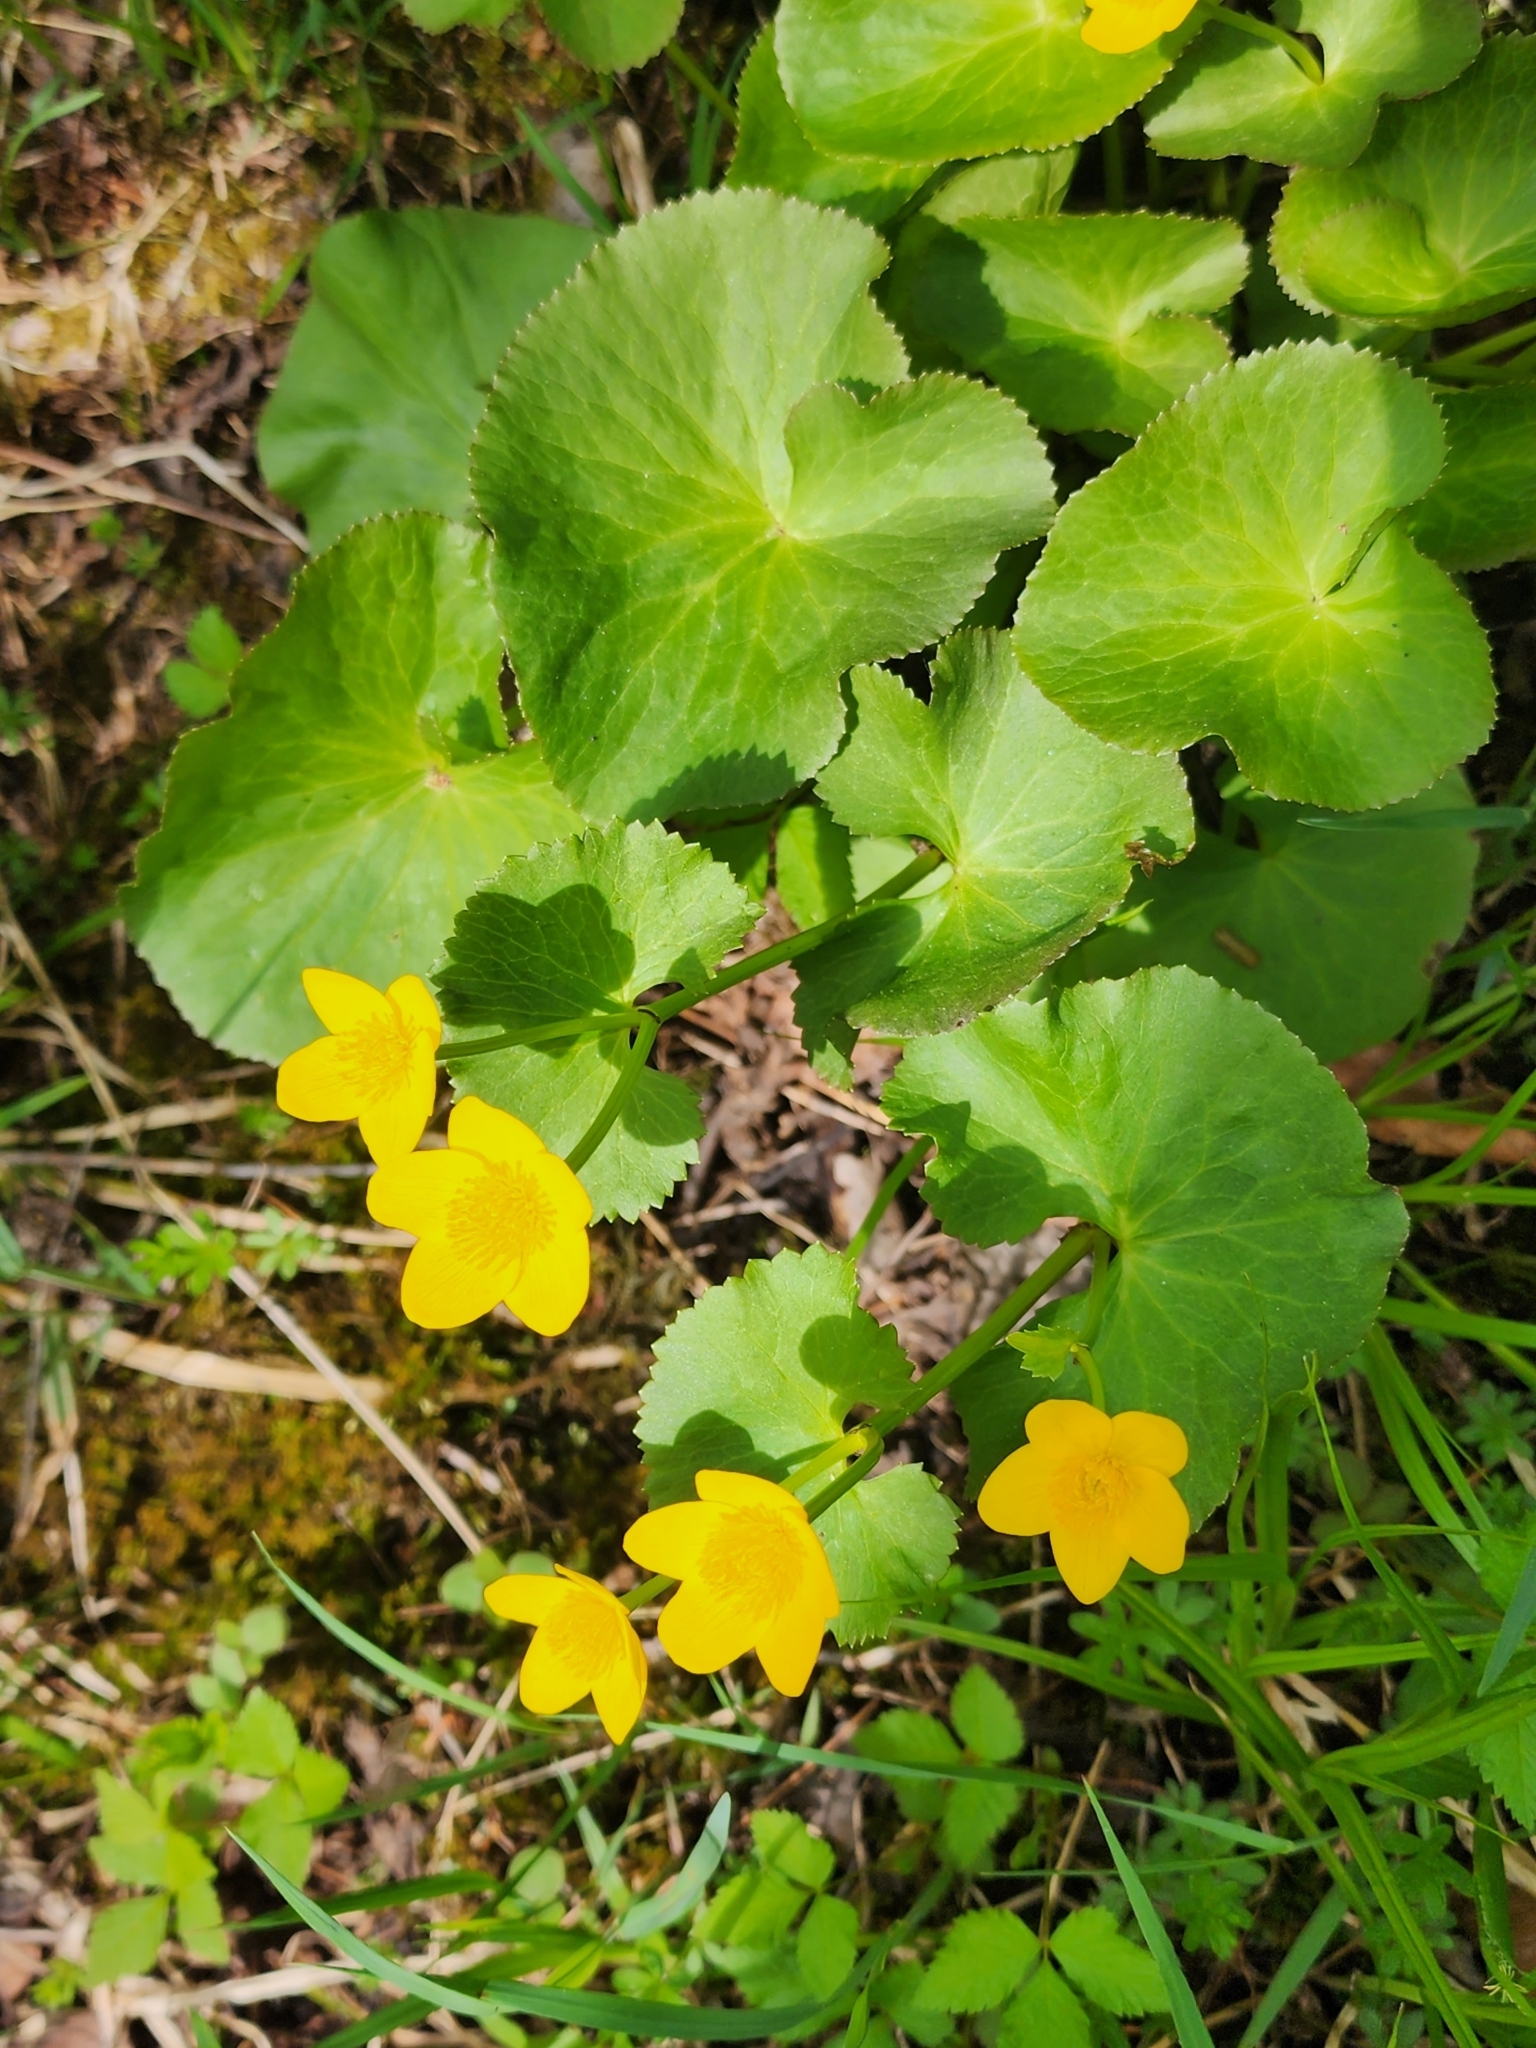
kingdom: Plantae
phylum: Tracheophyta
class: Magnoliopsida
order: Ranunculales
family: Ranunculaceae
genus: Caltha
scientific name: Caltha palustris
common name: Marsh marigold
